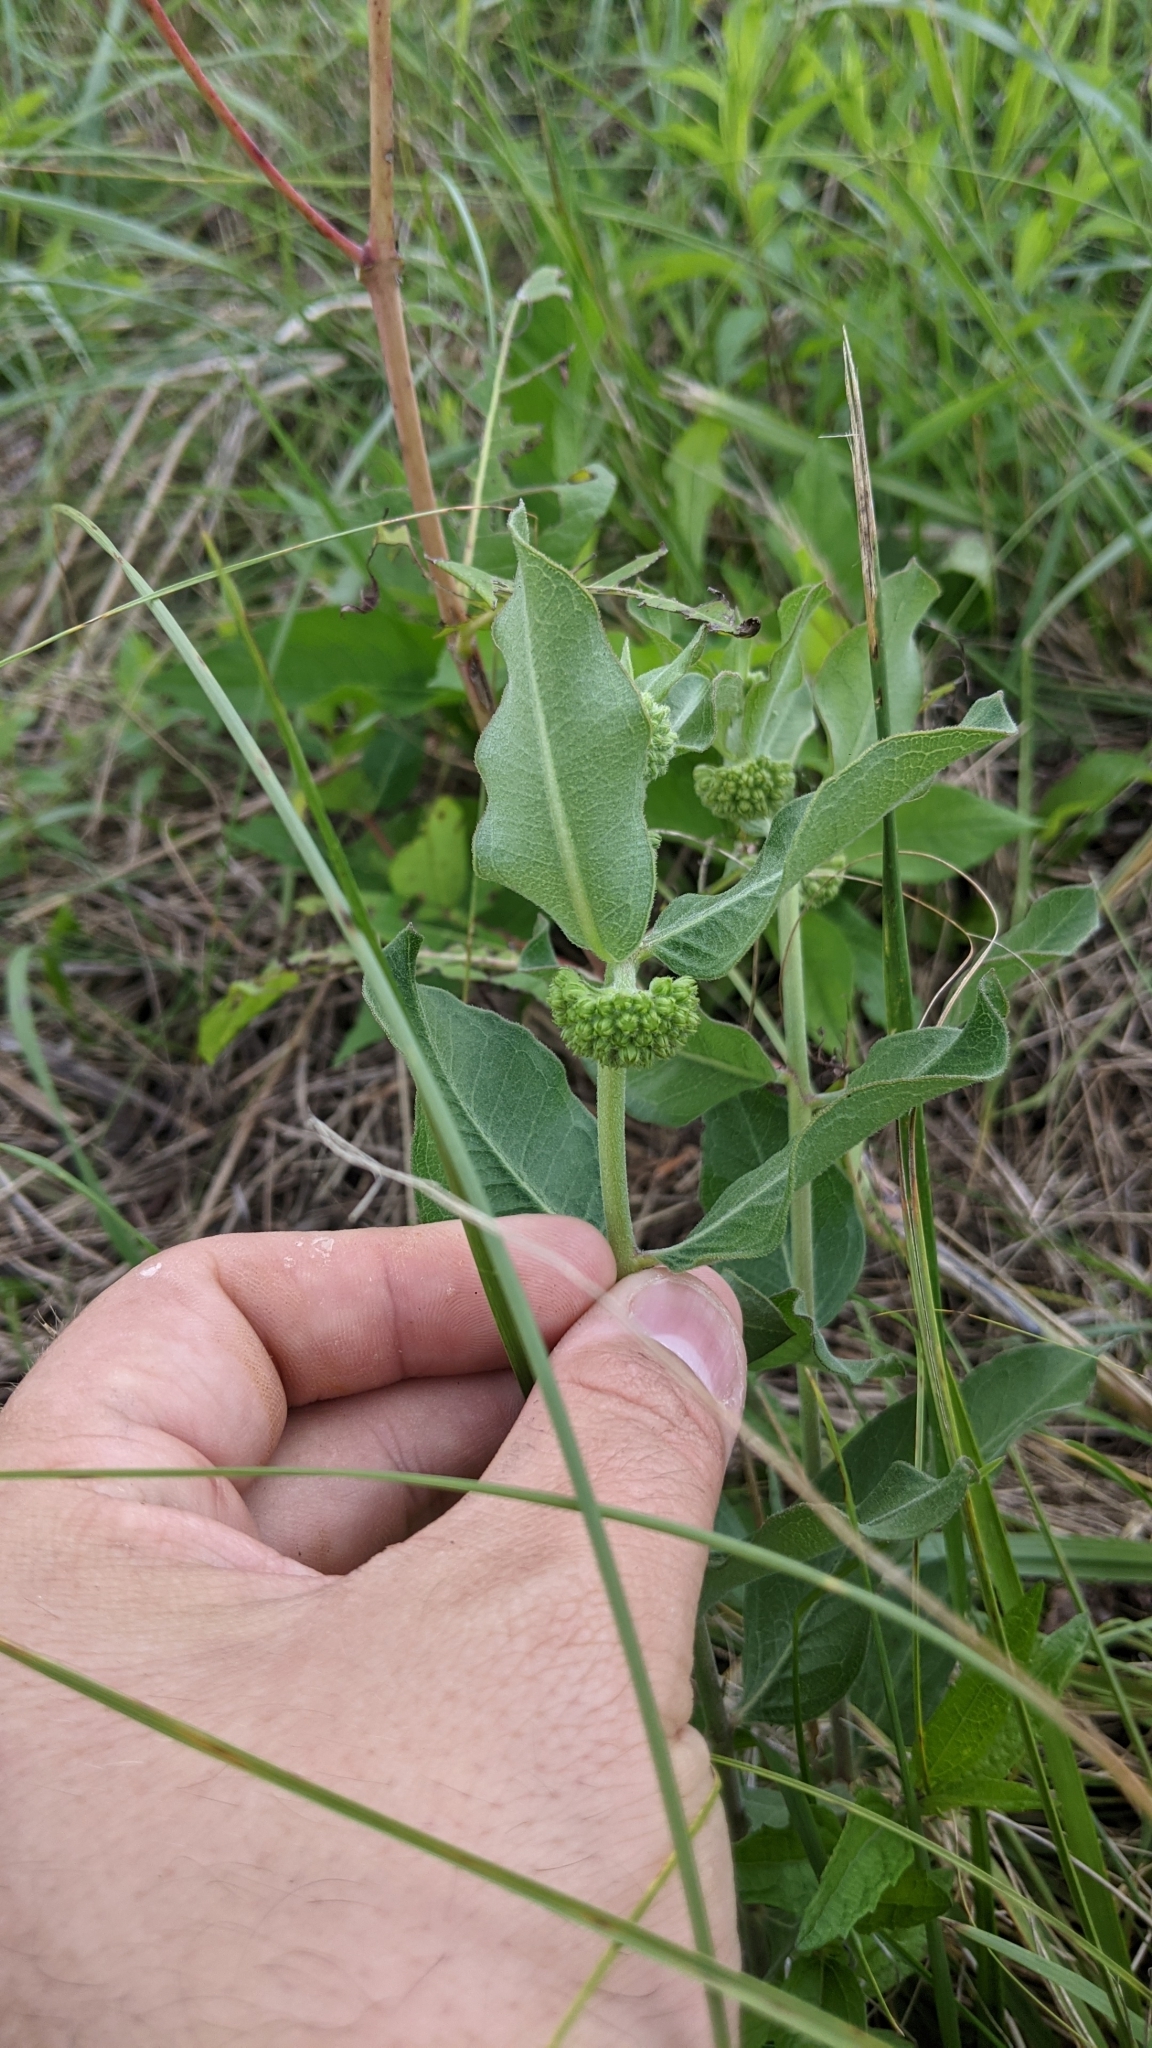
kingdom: Plantae
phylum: Tracheophyta
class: Magnoliopsida
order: Gentianales
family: Apocynaceae
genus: Asclepias
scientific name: Asclepias viridiflora
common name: Green comet milkweed
